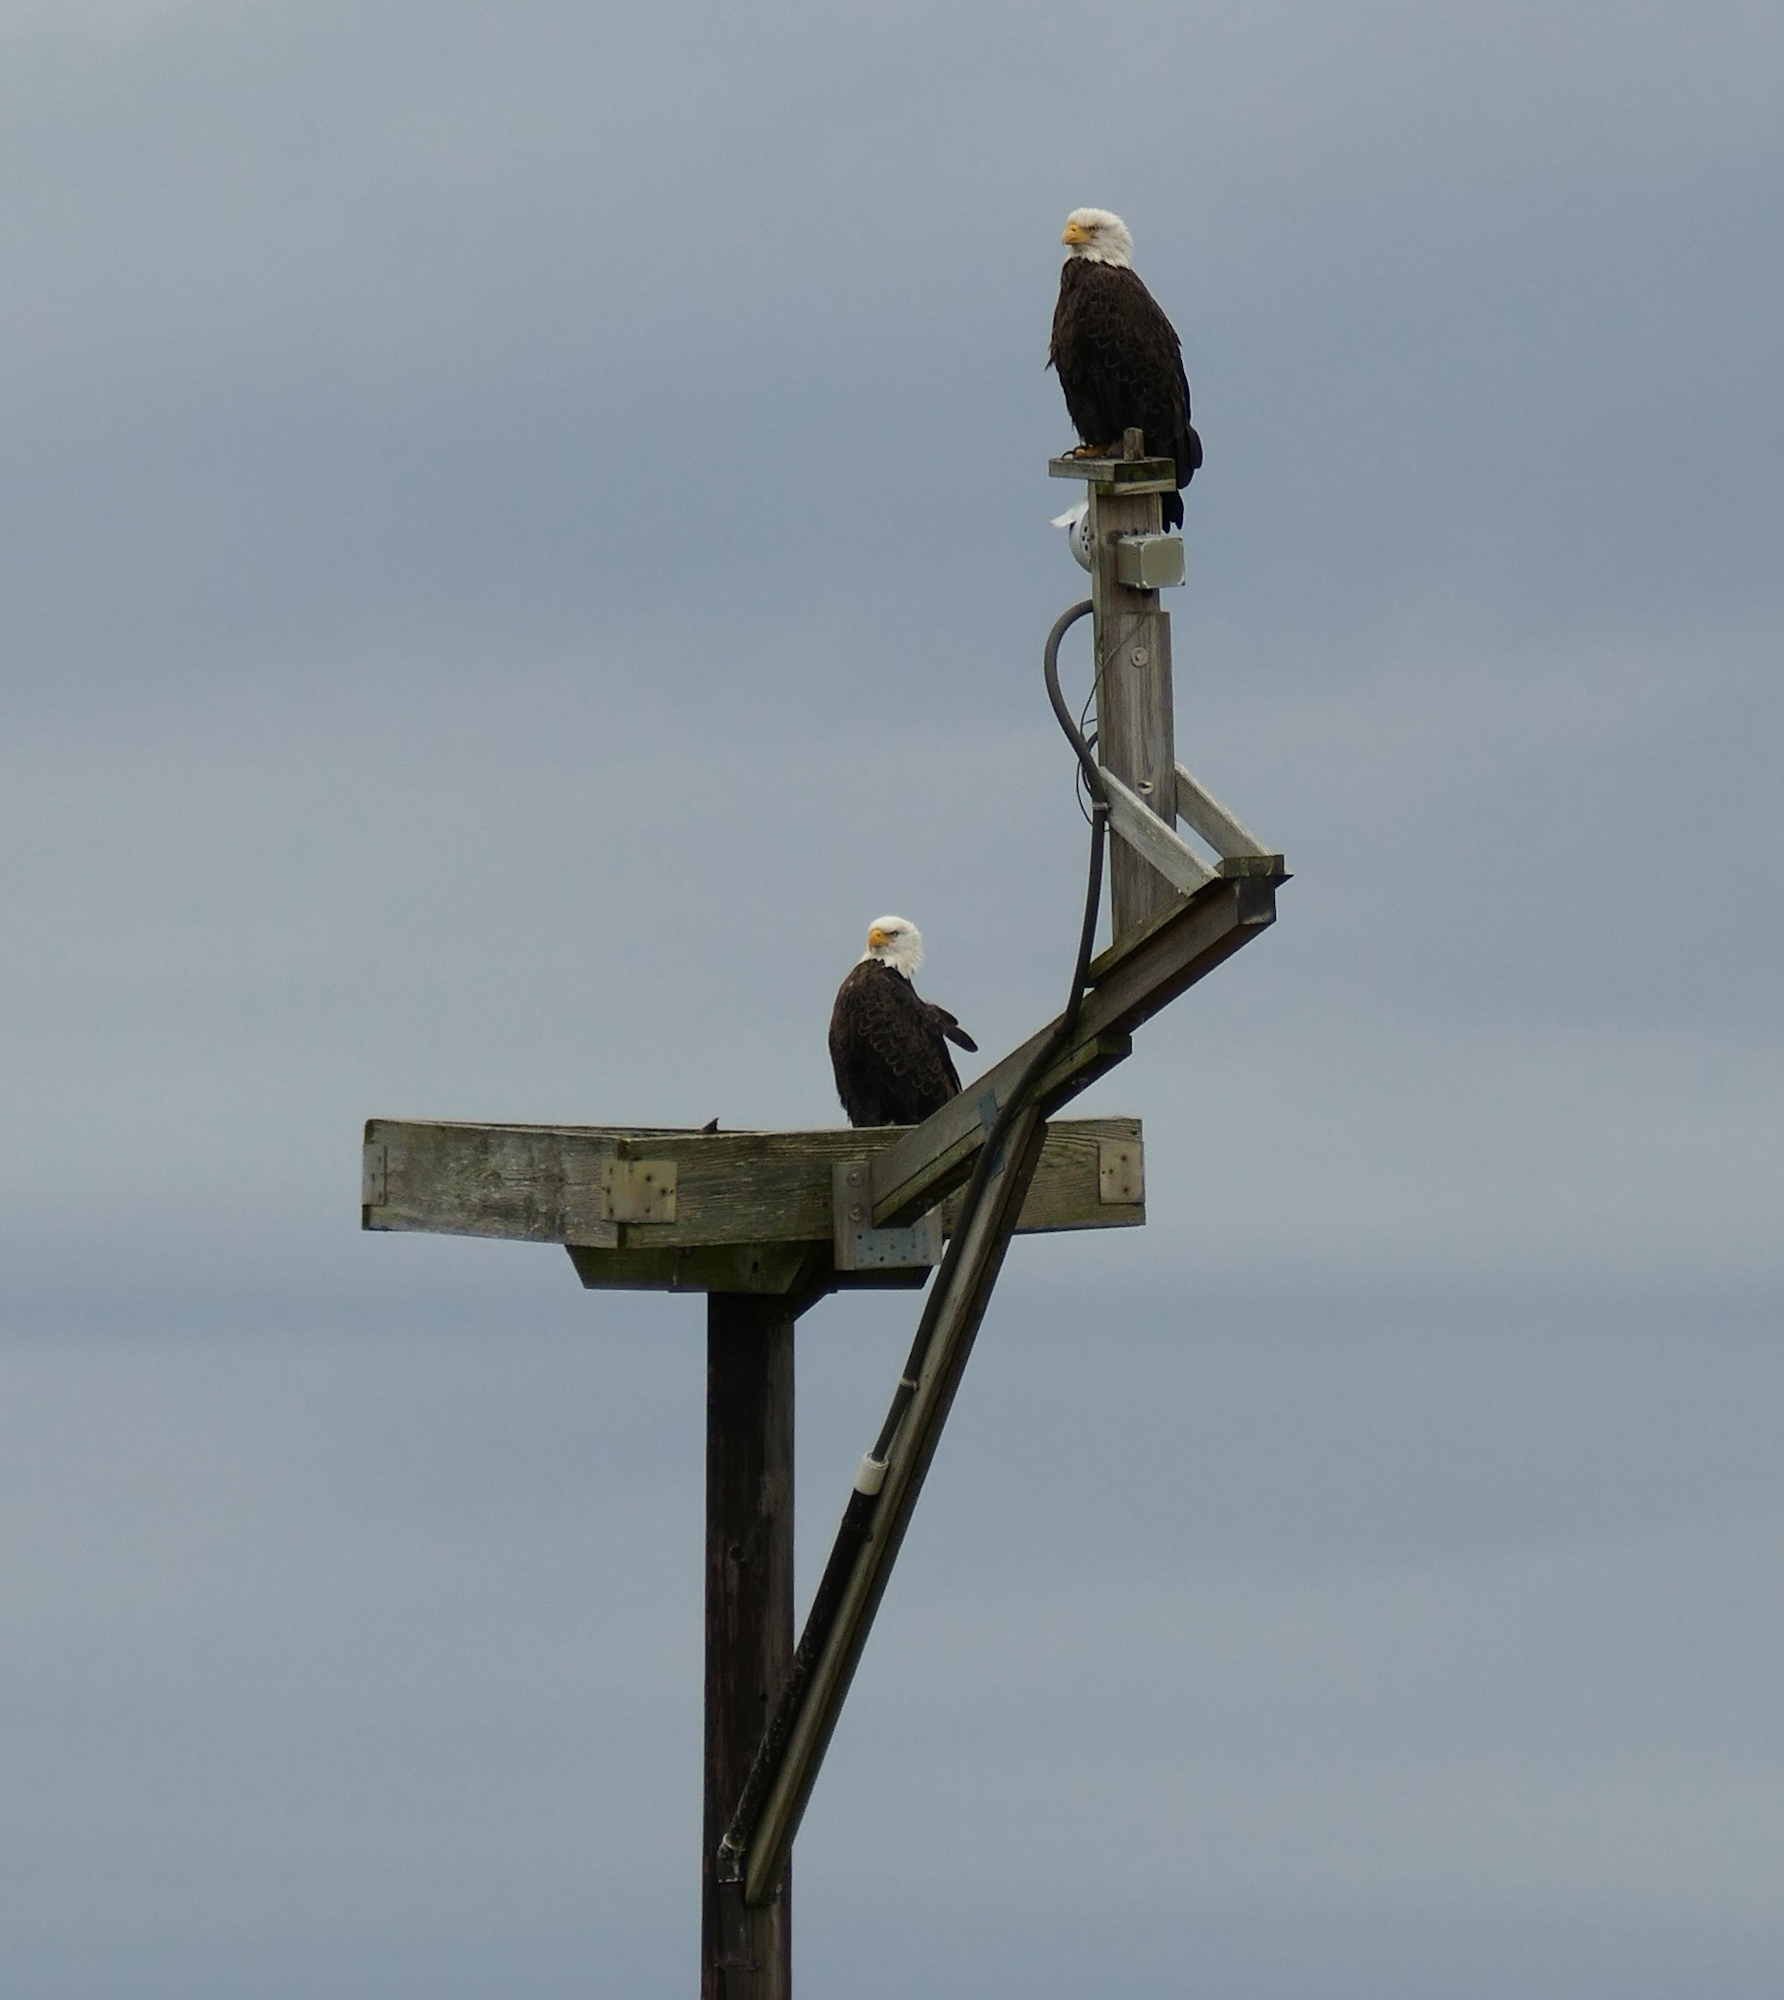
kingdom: Animalia
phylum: Chordata
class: Aves
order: Accipitriformes
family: Accipitridae
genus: Haliaeetus
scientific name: Haliaeetus leucocephalus
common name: Bald eagle
